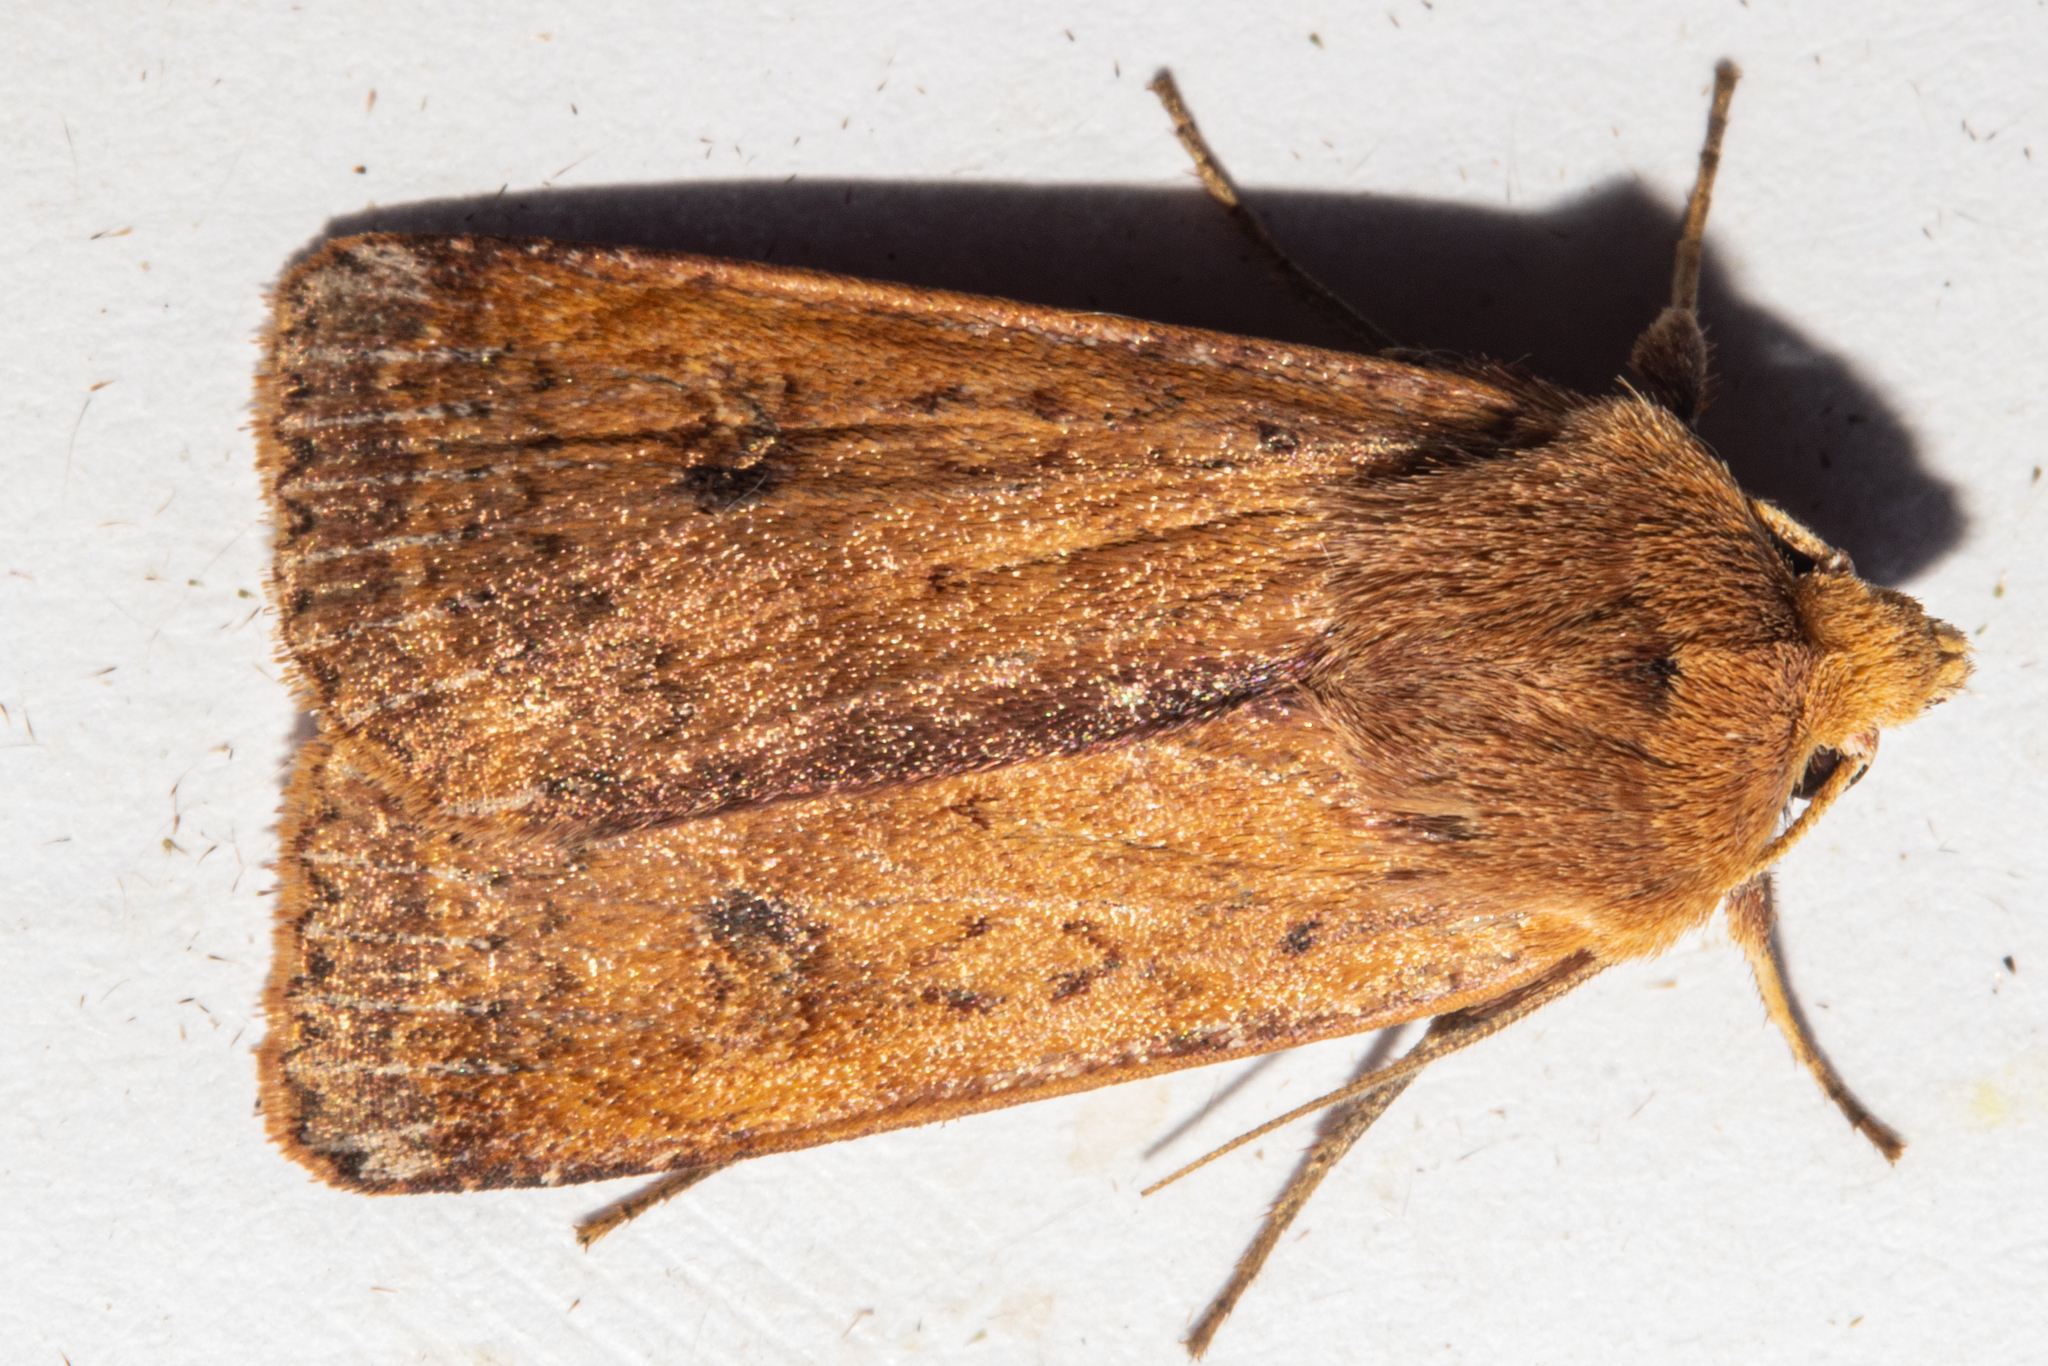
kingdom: Animalia
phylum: Arthropoda
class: Insecta
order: Lepidoptera
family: Noctuidae
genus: Diarsia
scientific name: Diarsia intermixta
